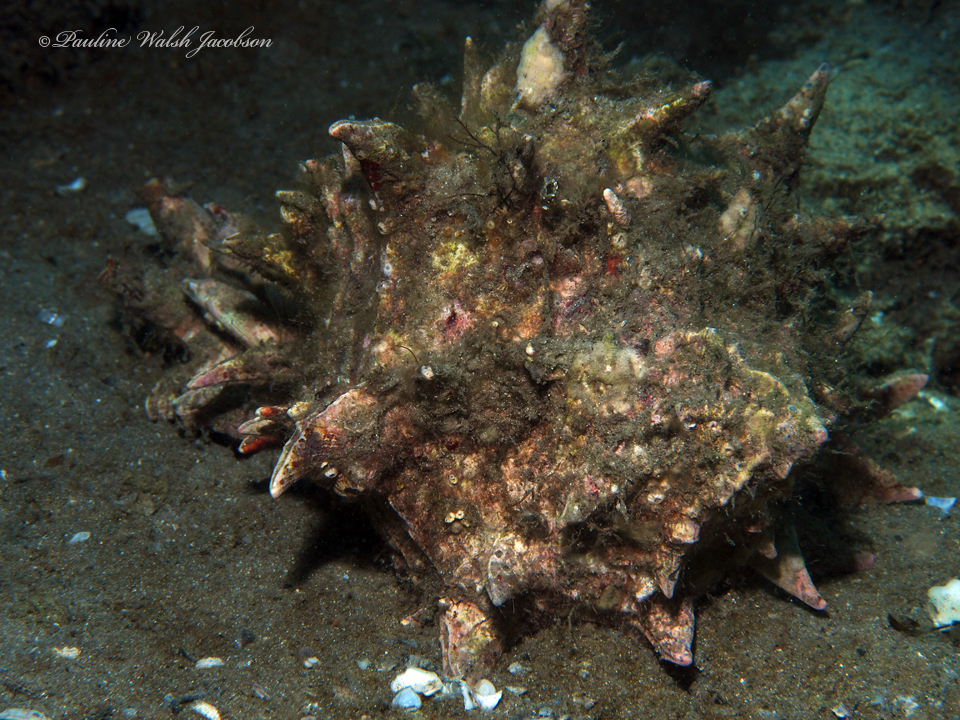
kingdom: Animalia
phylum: Mollusca
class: Gastropoda
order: Neogastropoda
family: Muricidae
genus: Hexaplex
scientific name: Hexaplex fulvescens
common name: Tawny murex
